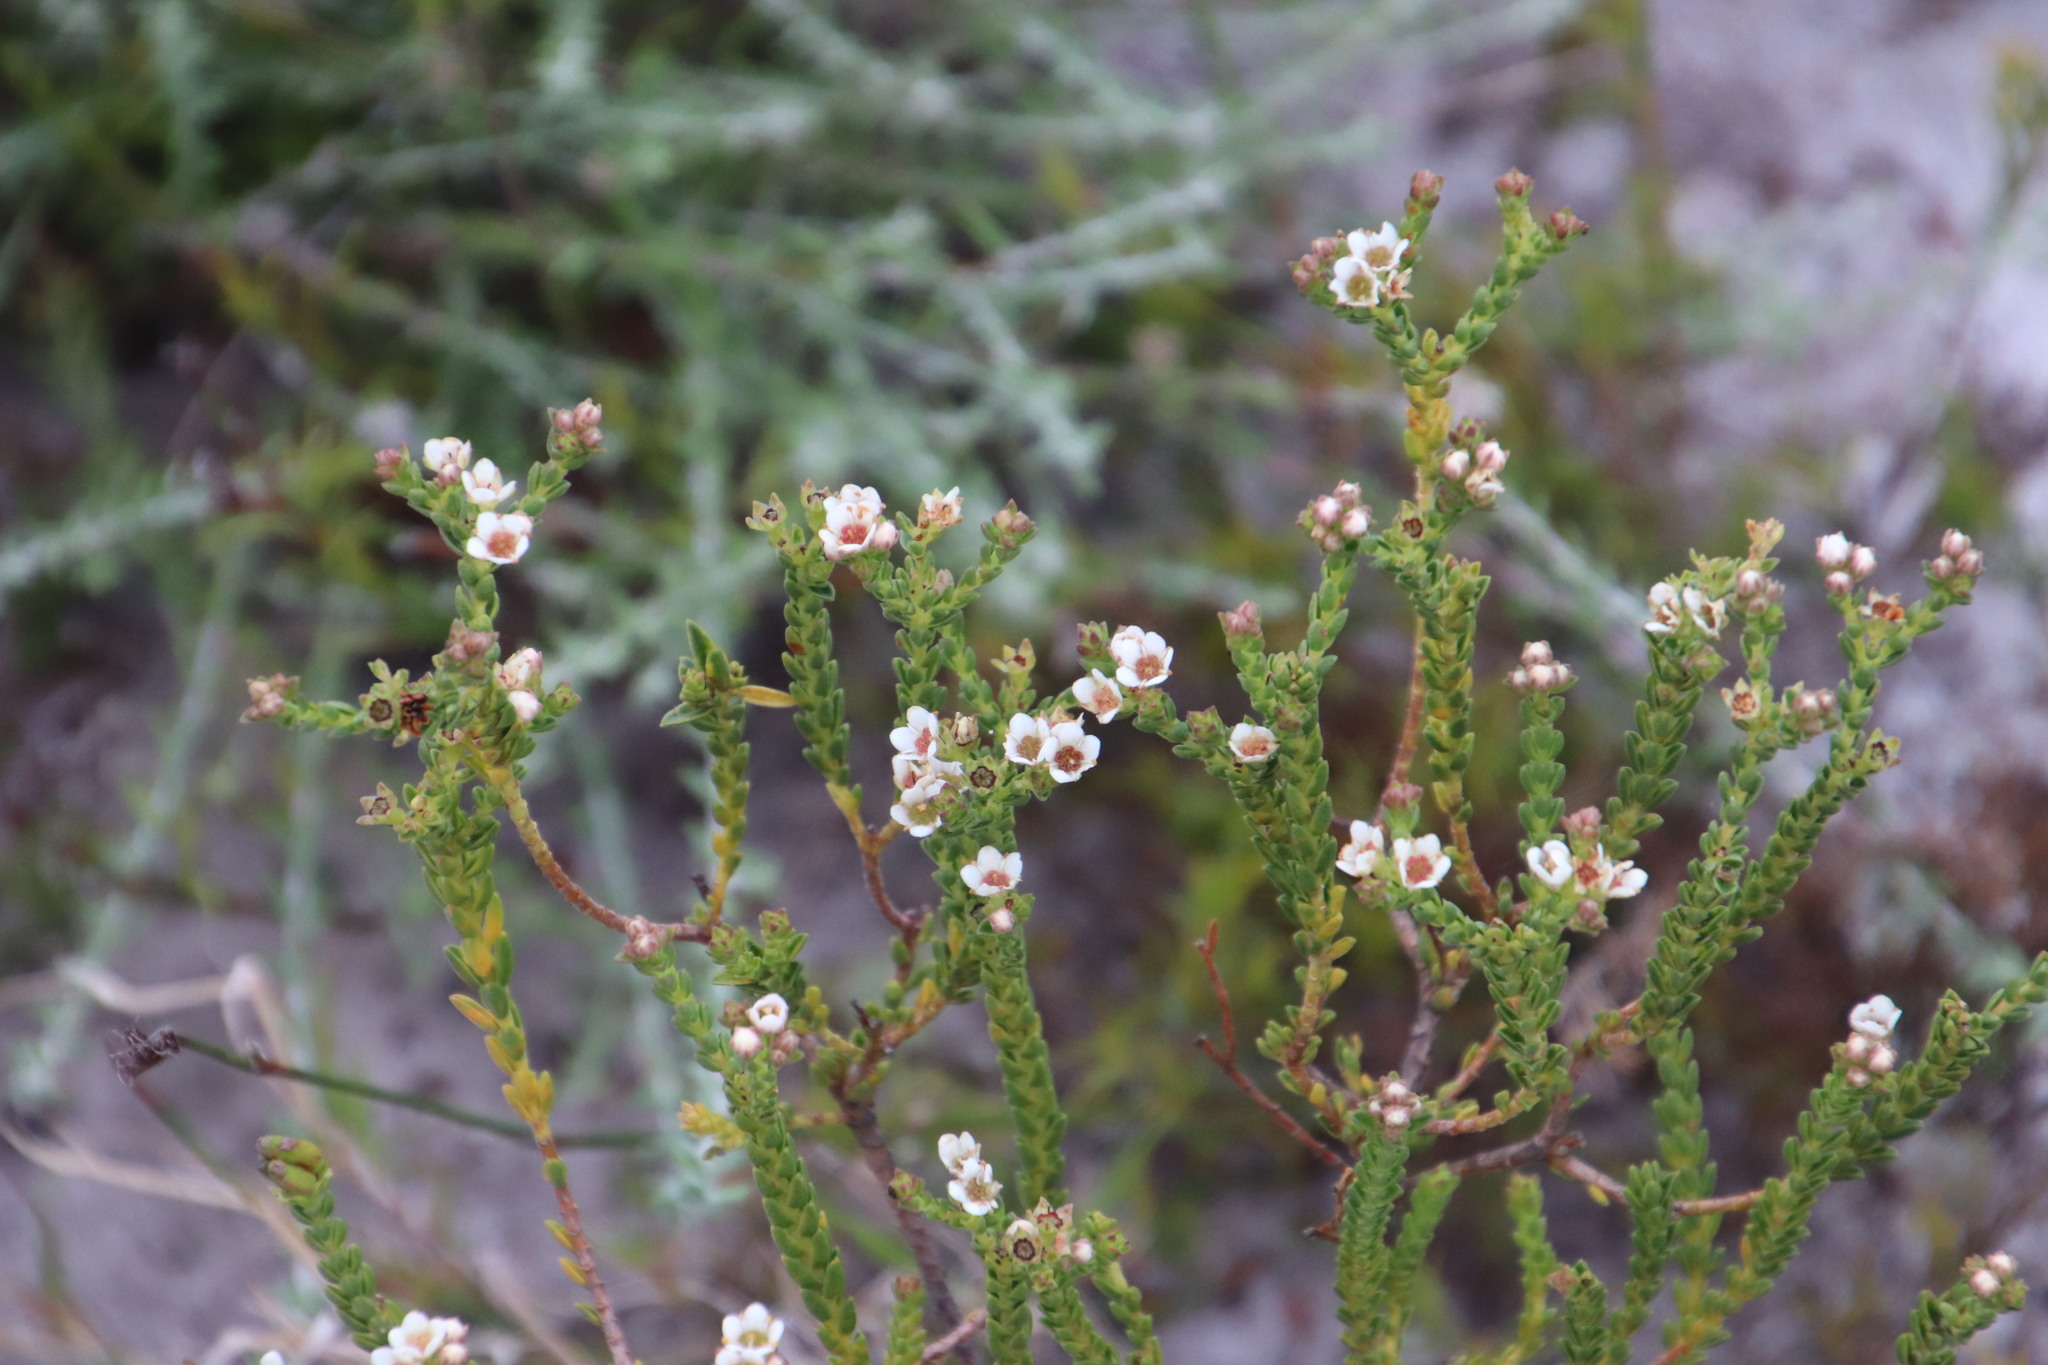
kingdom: Plantae
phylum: Tracheophyta
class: Magnoliopsida
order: Sapindales
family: Rutaceae
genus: Diosma
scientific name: Diosma oppositifolia
